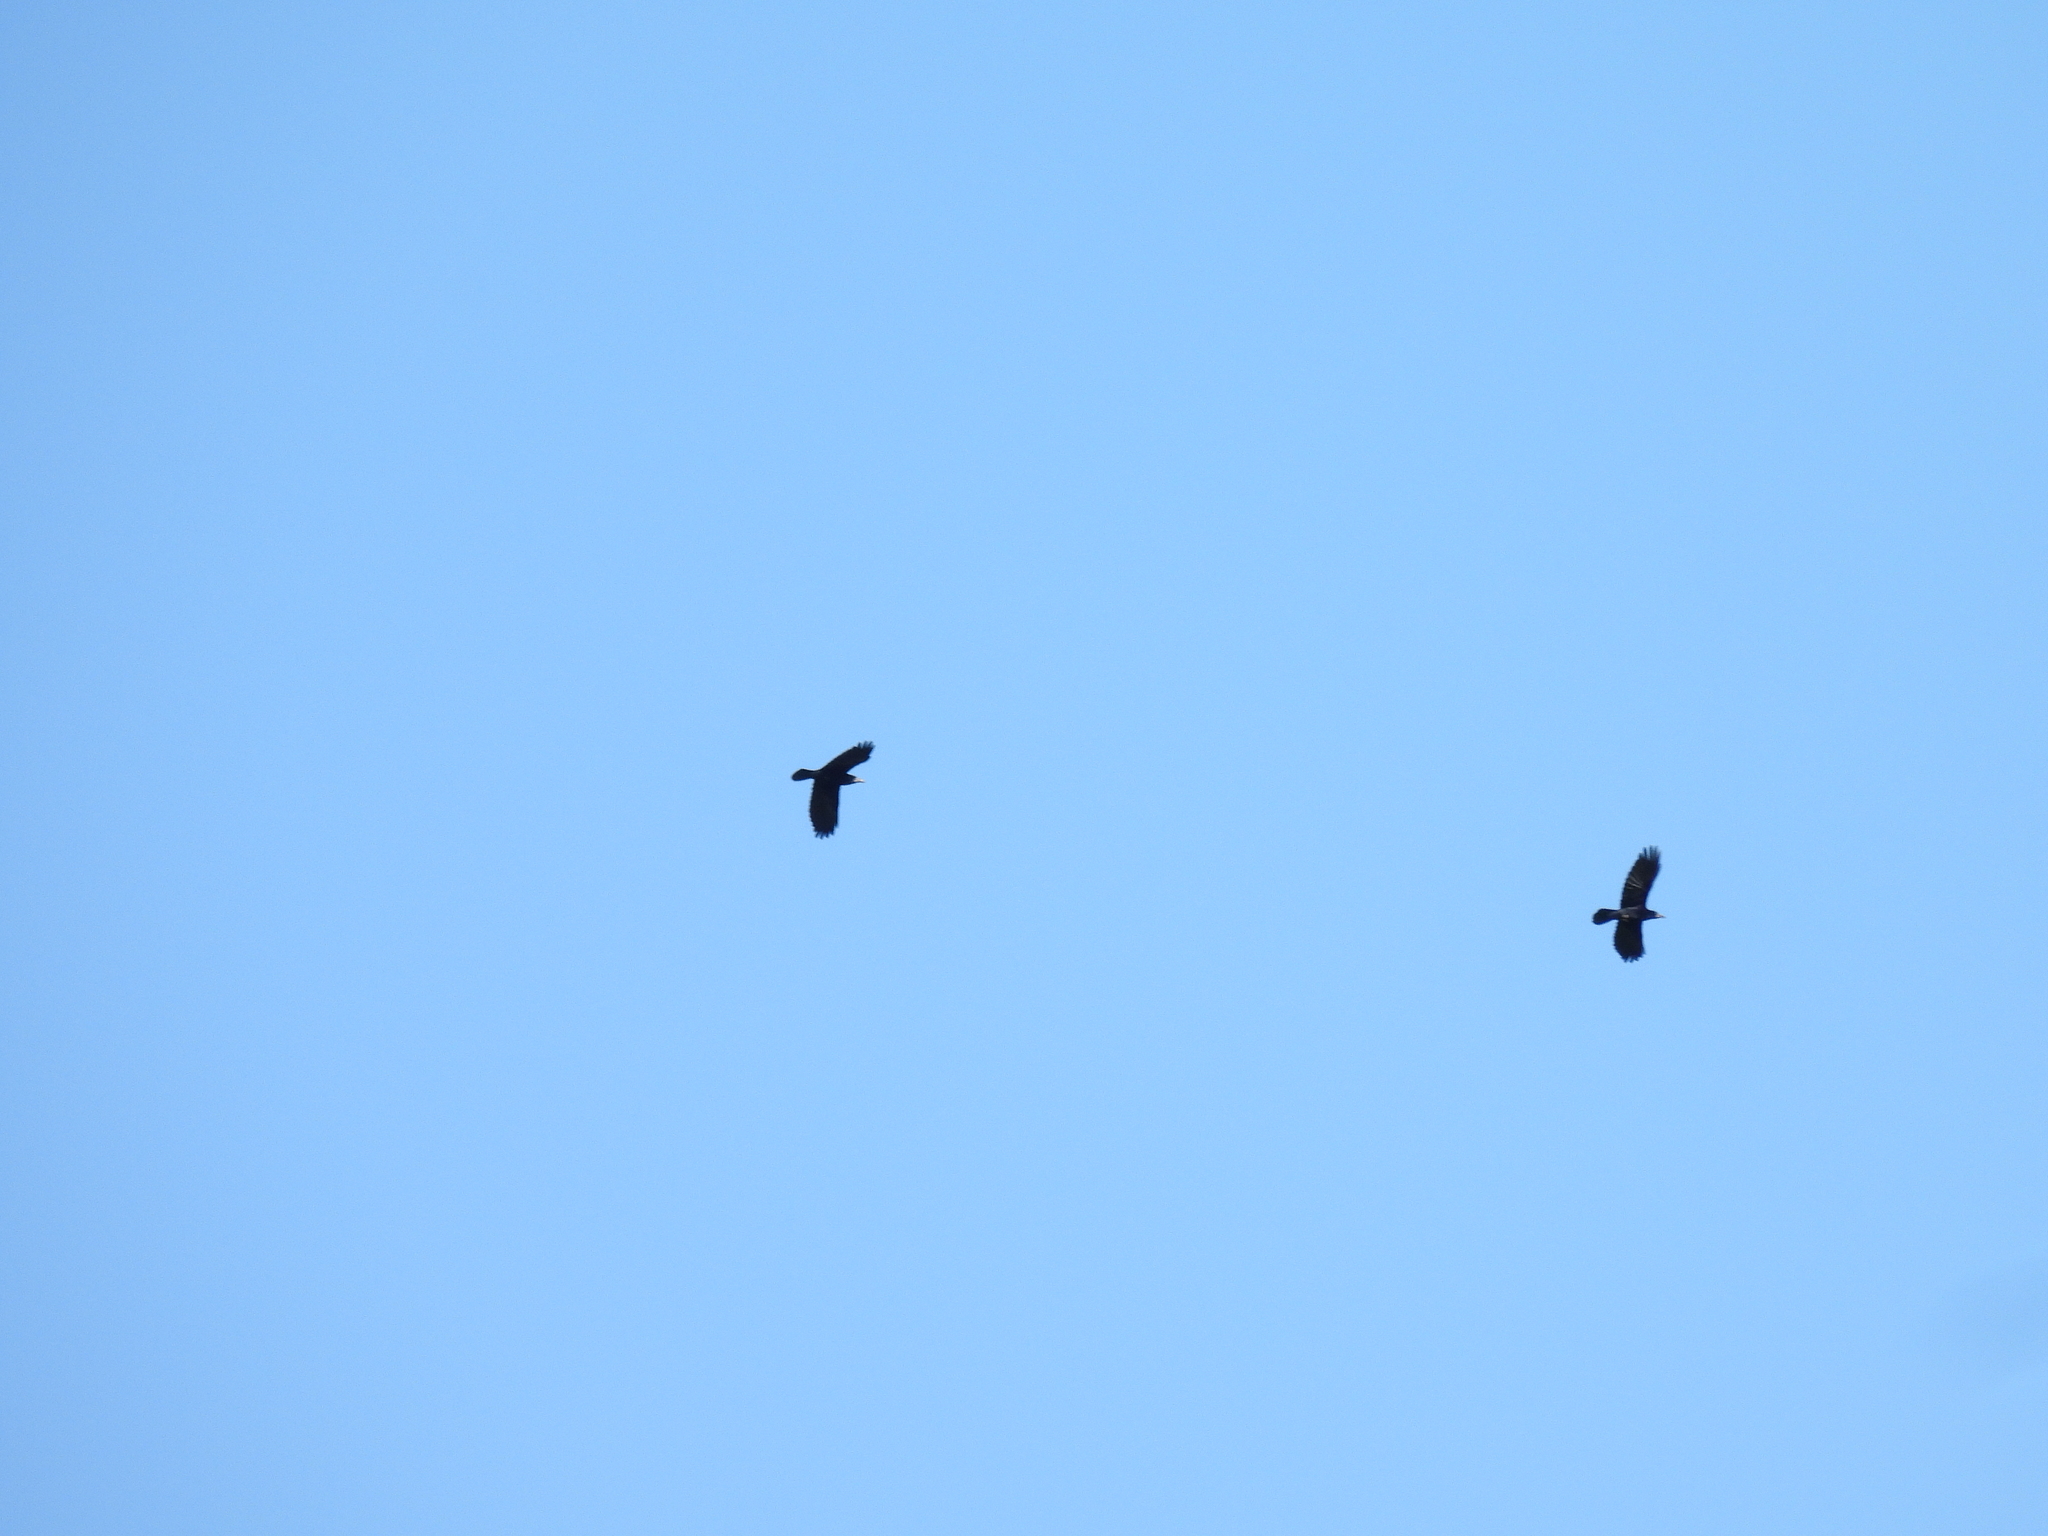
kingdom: Animalia
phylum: Chordata
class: Aves
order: Passeriformes
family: Corvidae
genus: Corvus
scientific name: Corvus frugilegus
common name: Rook
